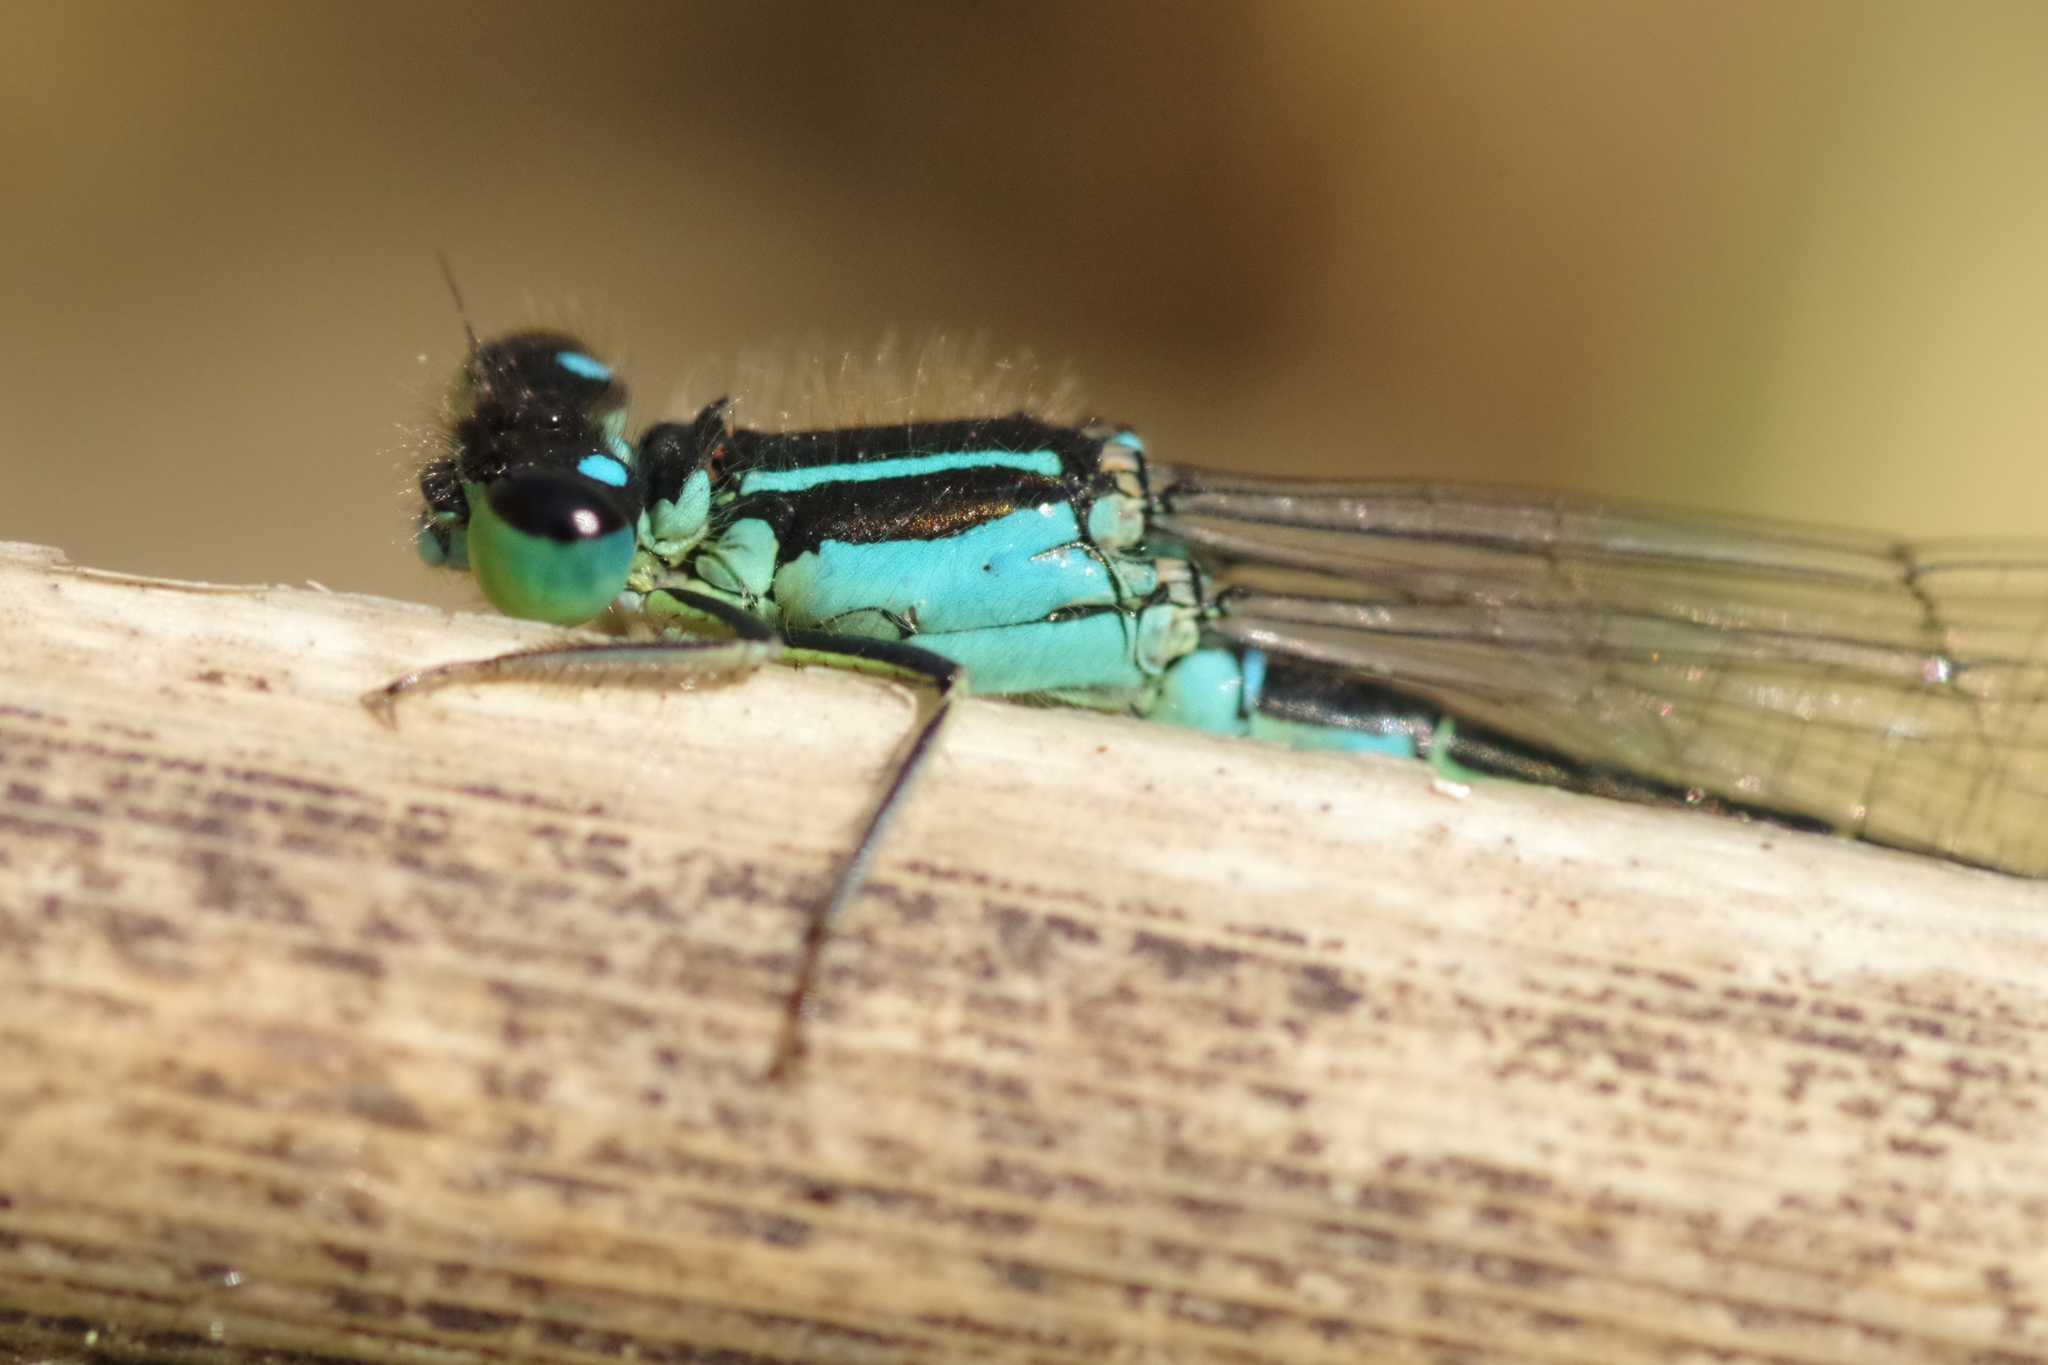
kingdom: Animalia
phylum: Arthropoda
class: Insecta
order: Odonata
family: Coenagrionidae
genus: Ischnura
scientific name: Ischnura elegans
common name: Blue-tailed damselfly
